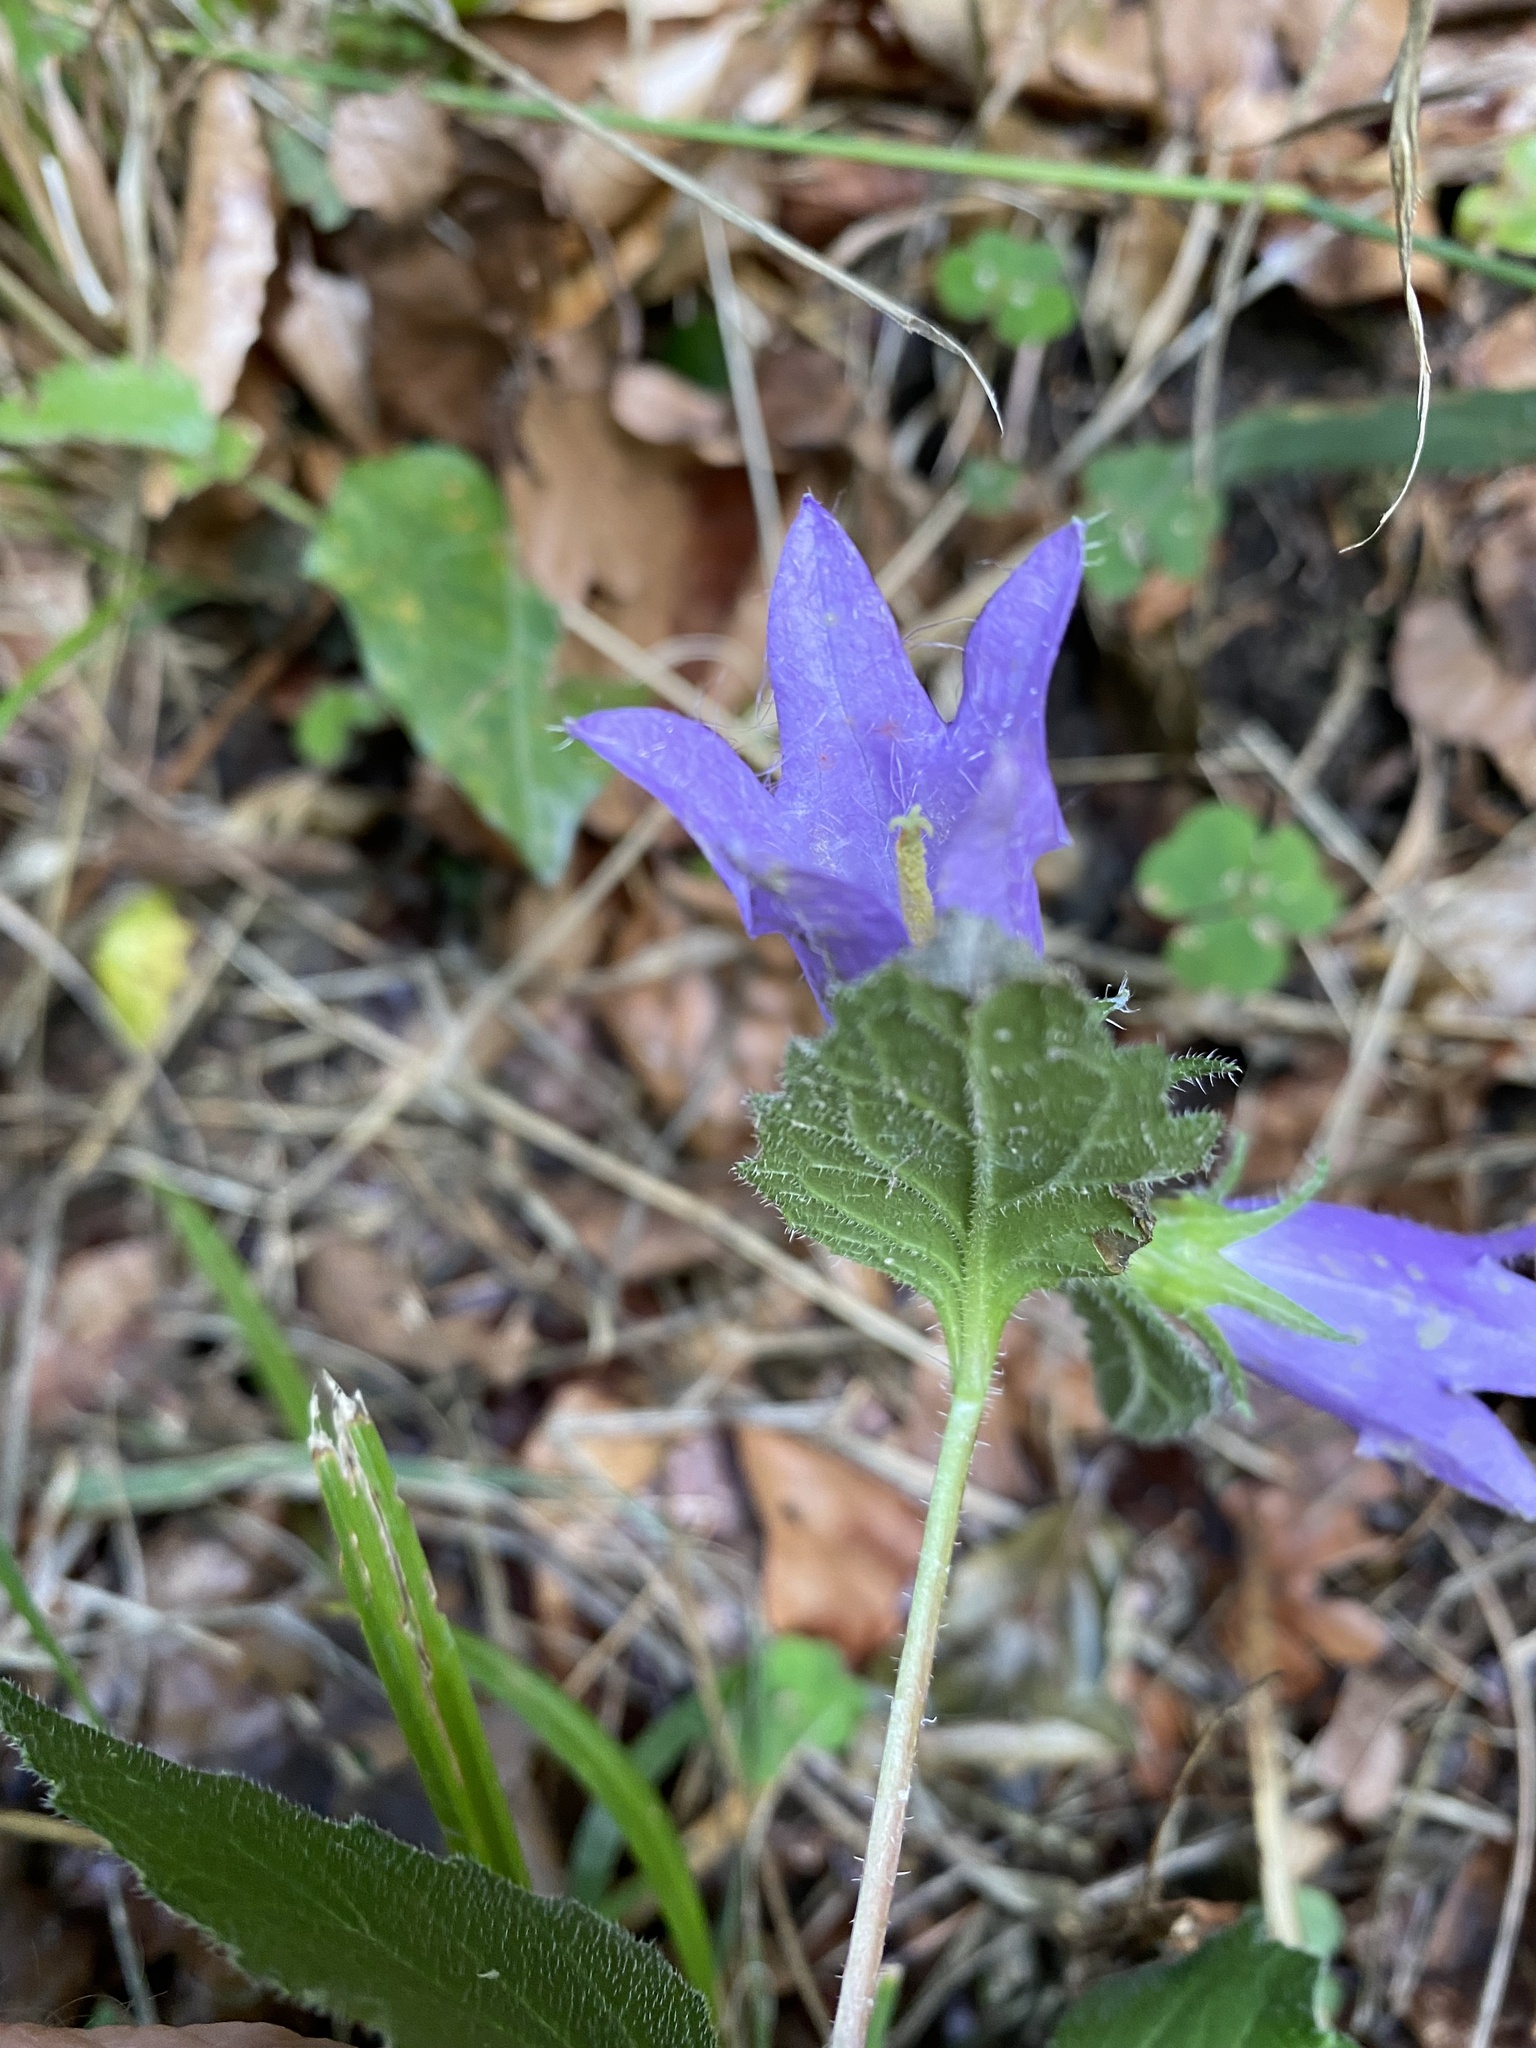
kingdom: Plantae
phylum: Tracheophyta
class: Magnoliopsida
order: Asterales
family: Campanulaceae
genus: Campanula
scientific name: Campanula trachelium
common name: Nettle-leaved bellflower
